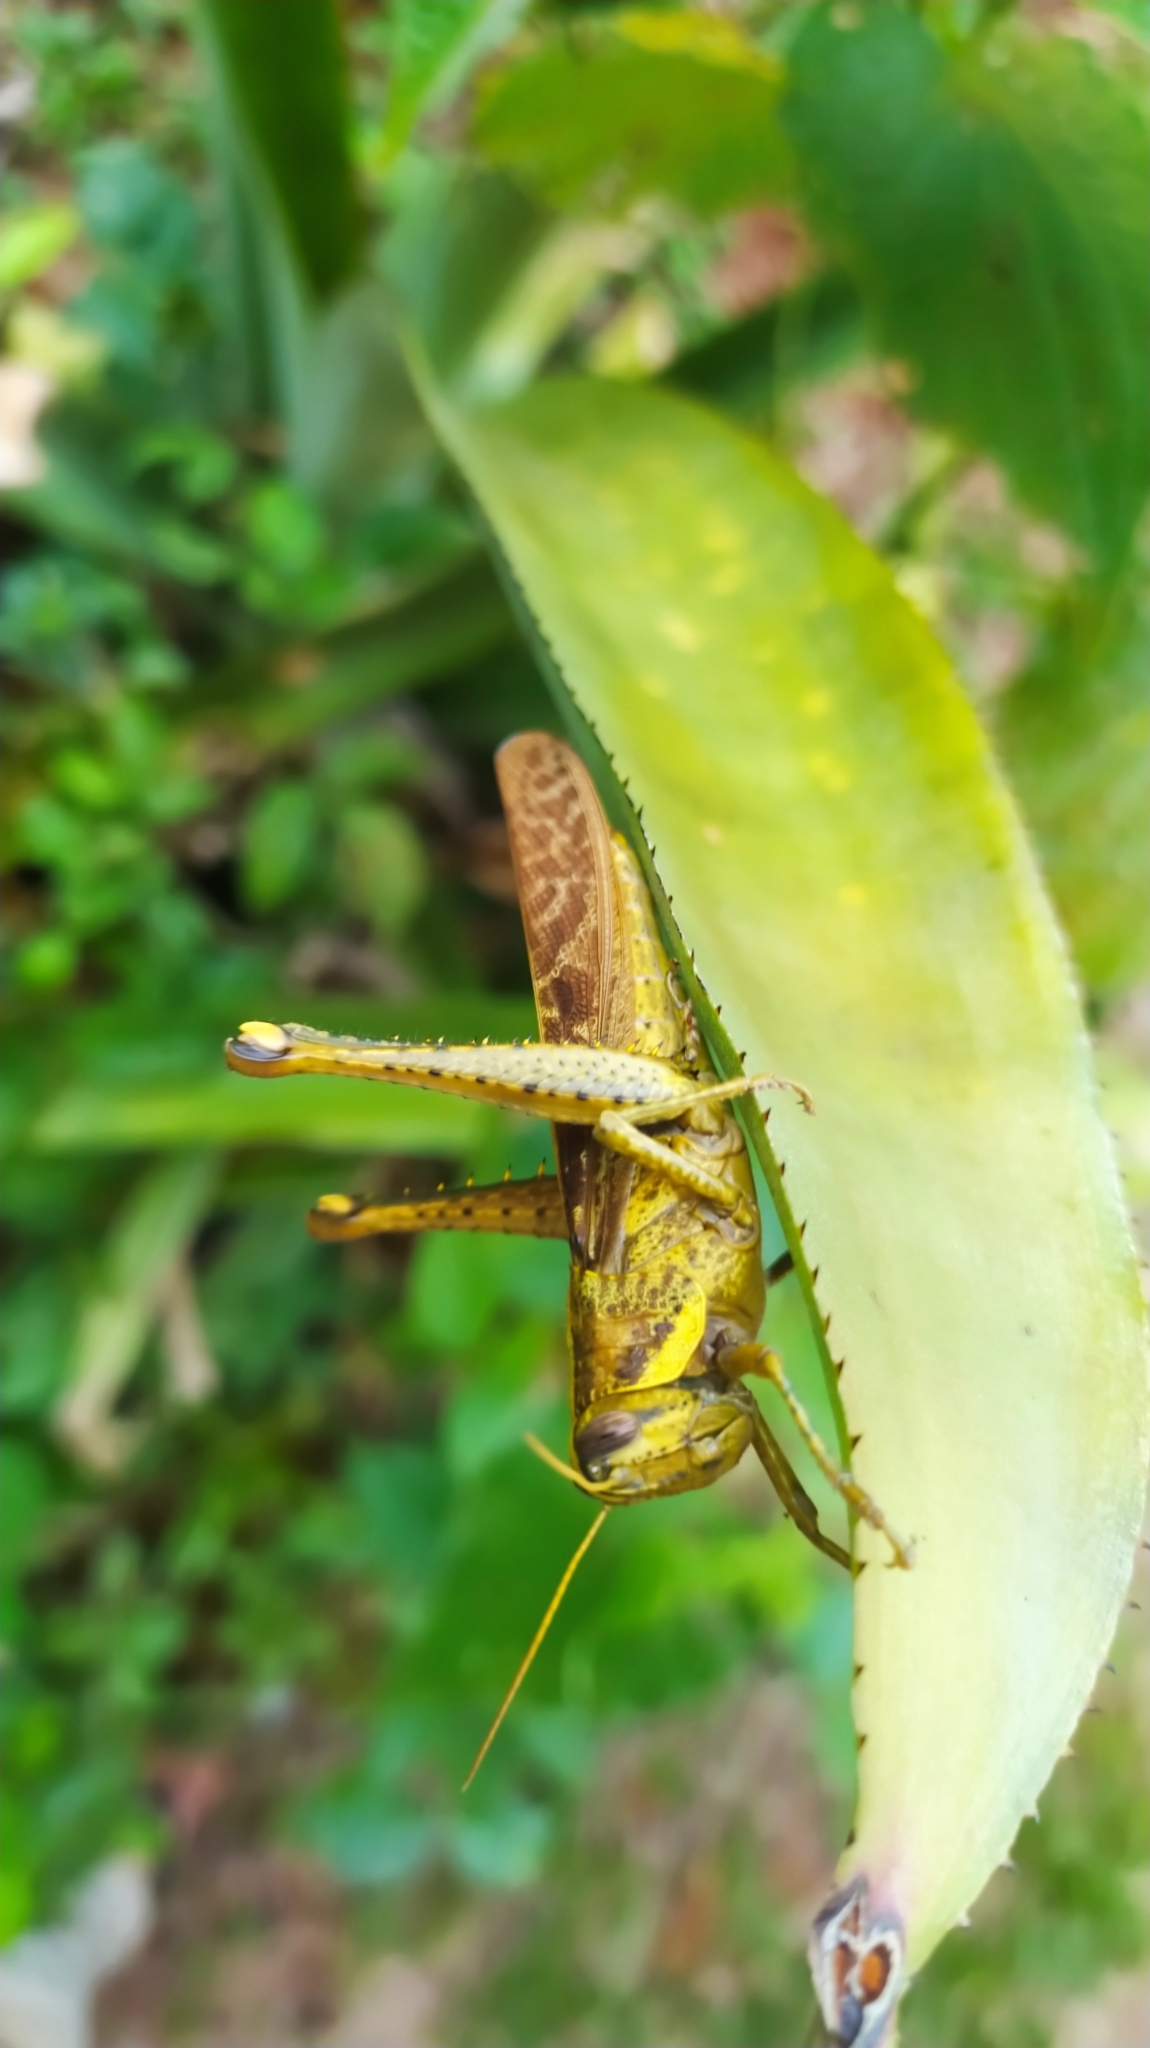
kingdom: Animalia
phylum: Arthropoda
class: Insecta
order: Orthoptera
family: Acrididae
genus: Schistocerca
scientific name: Schistocerca
